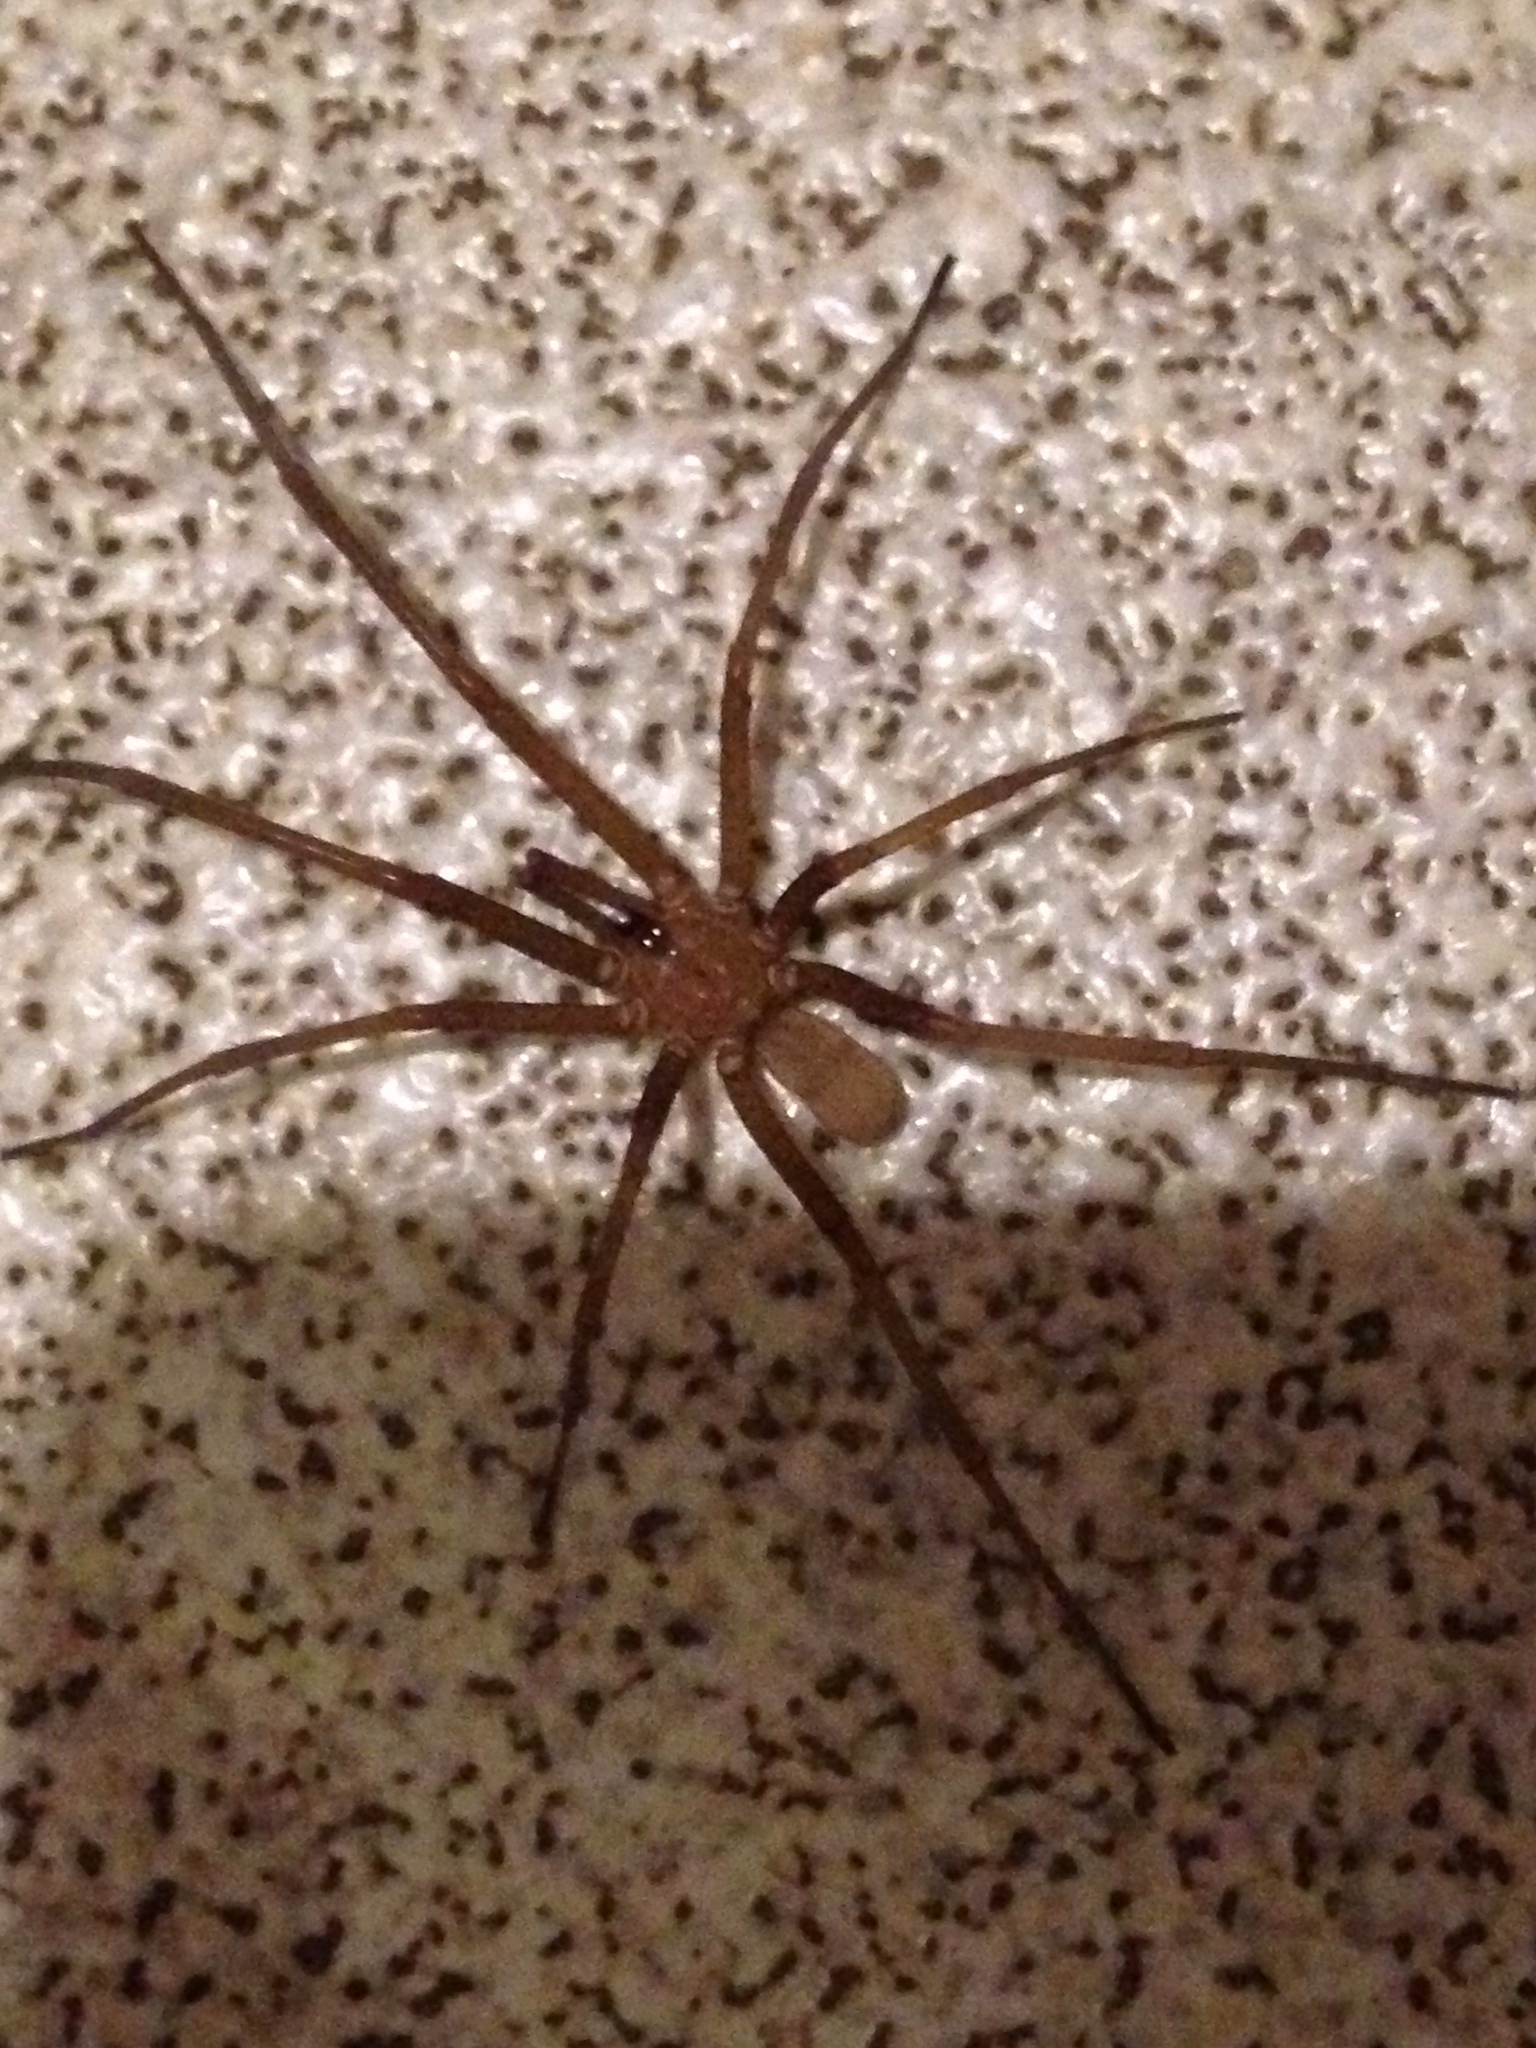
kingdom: Animalia
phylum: Arthropoda
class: Arachnida
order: Araneae
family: Filistatidae
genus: Kukulcania
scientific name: Kukulcania hibernalis
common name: Crevice weaver
